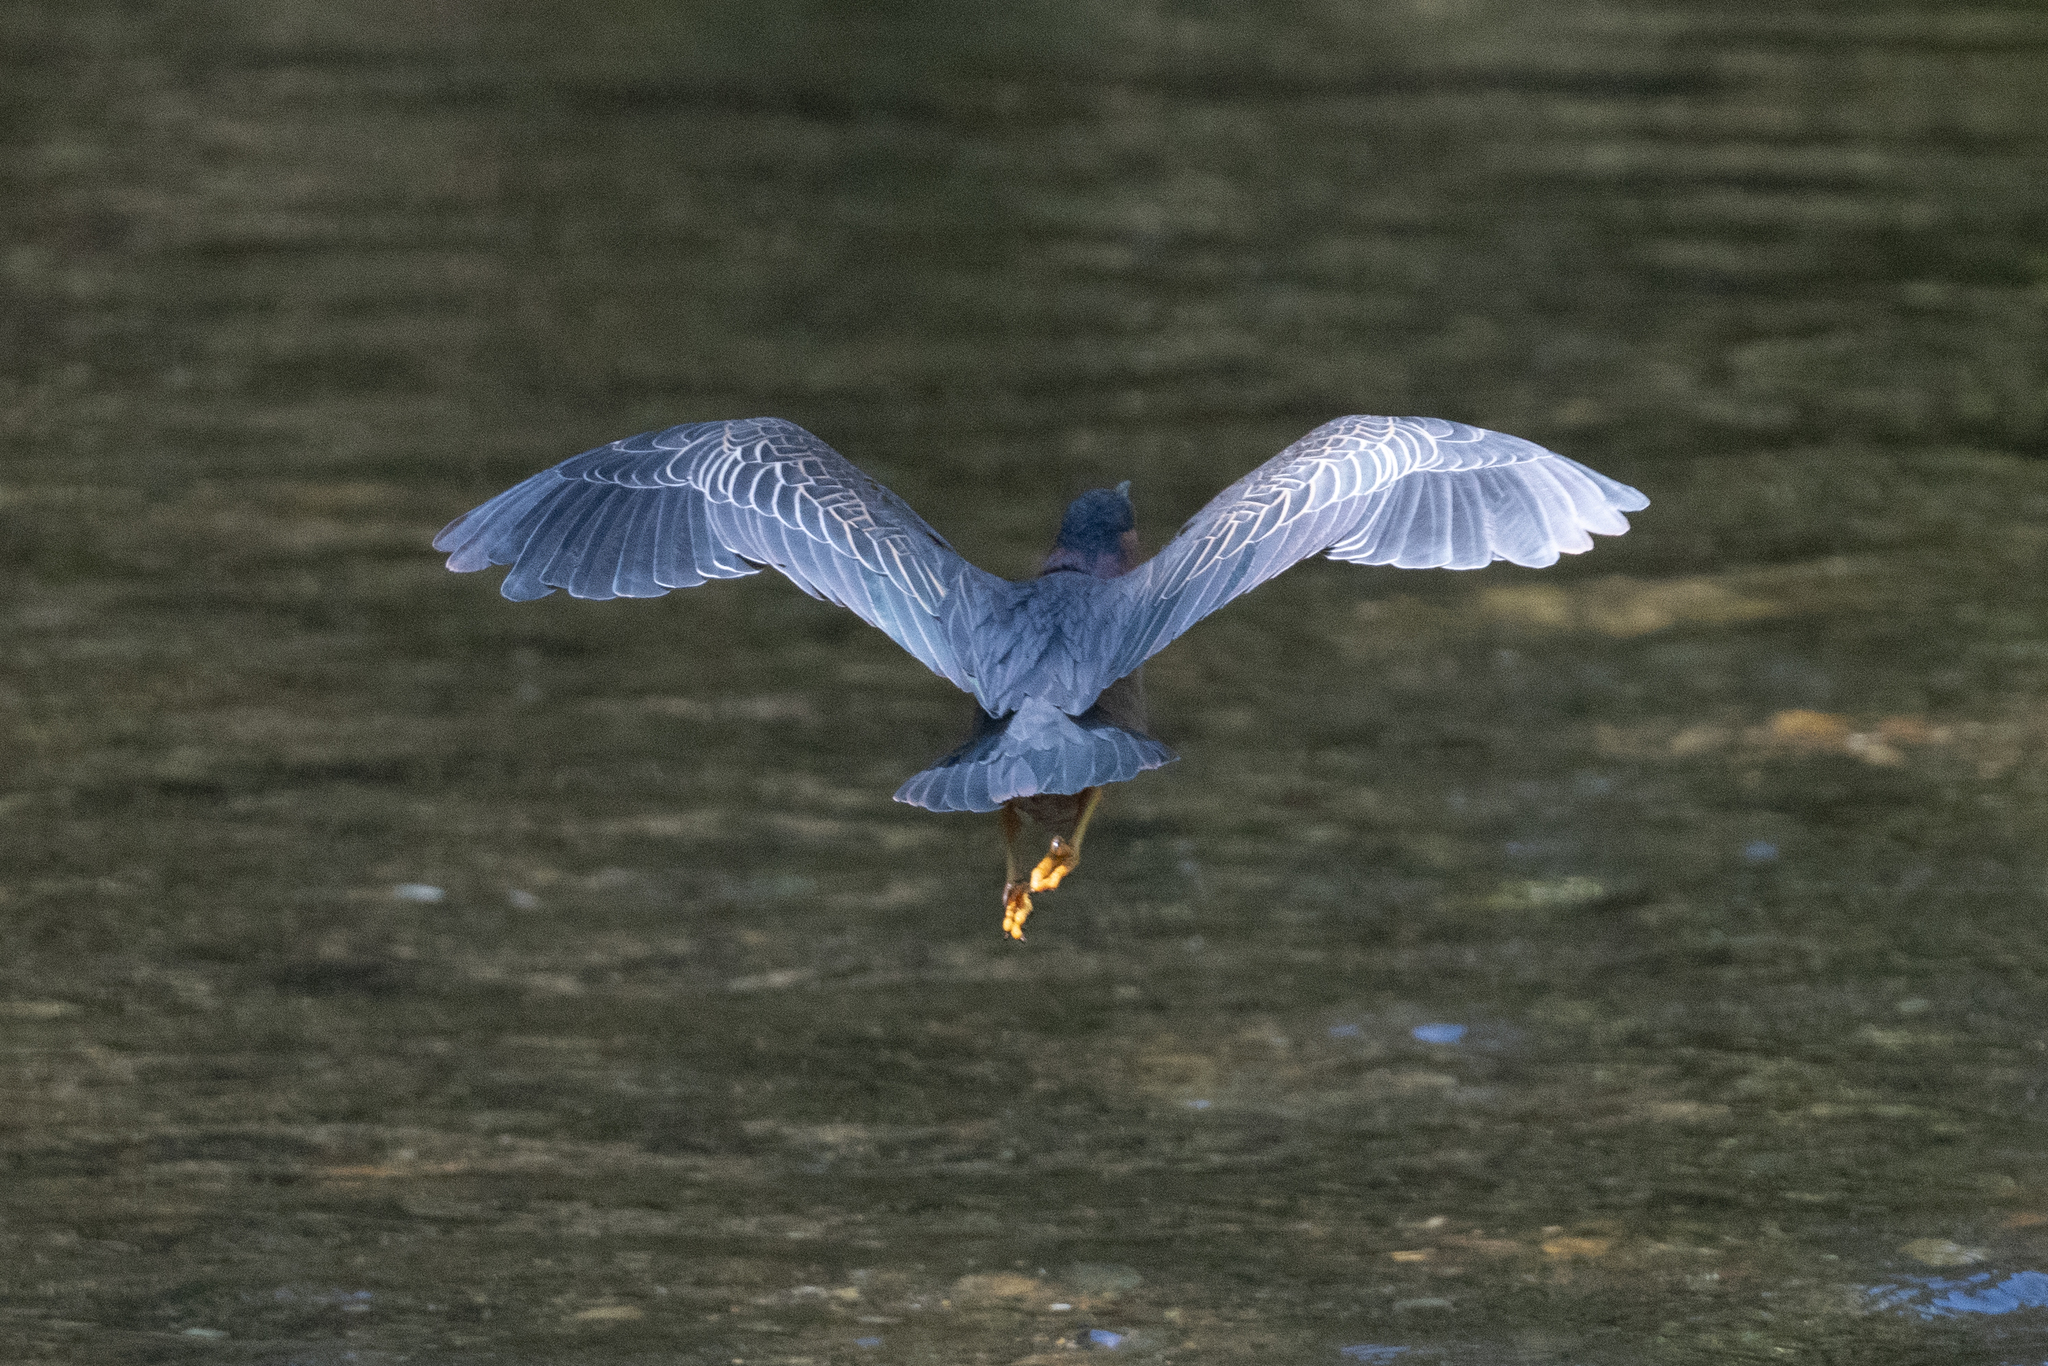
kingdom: Animalia
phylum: Chordata
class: Aves
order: Pelecaniformes
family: Ardeidae
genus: Butorides
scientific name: Butorides virescens
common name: Green heron
